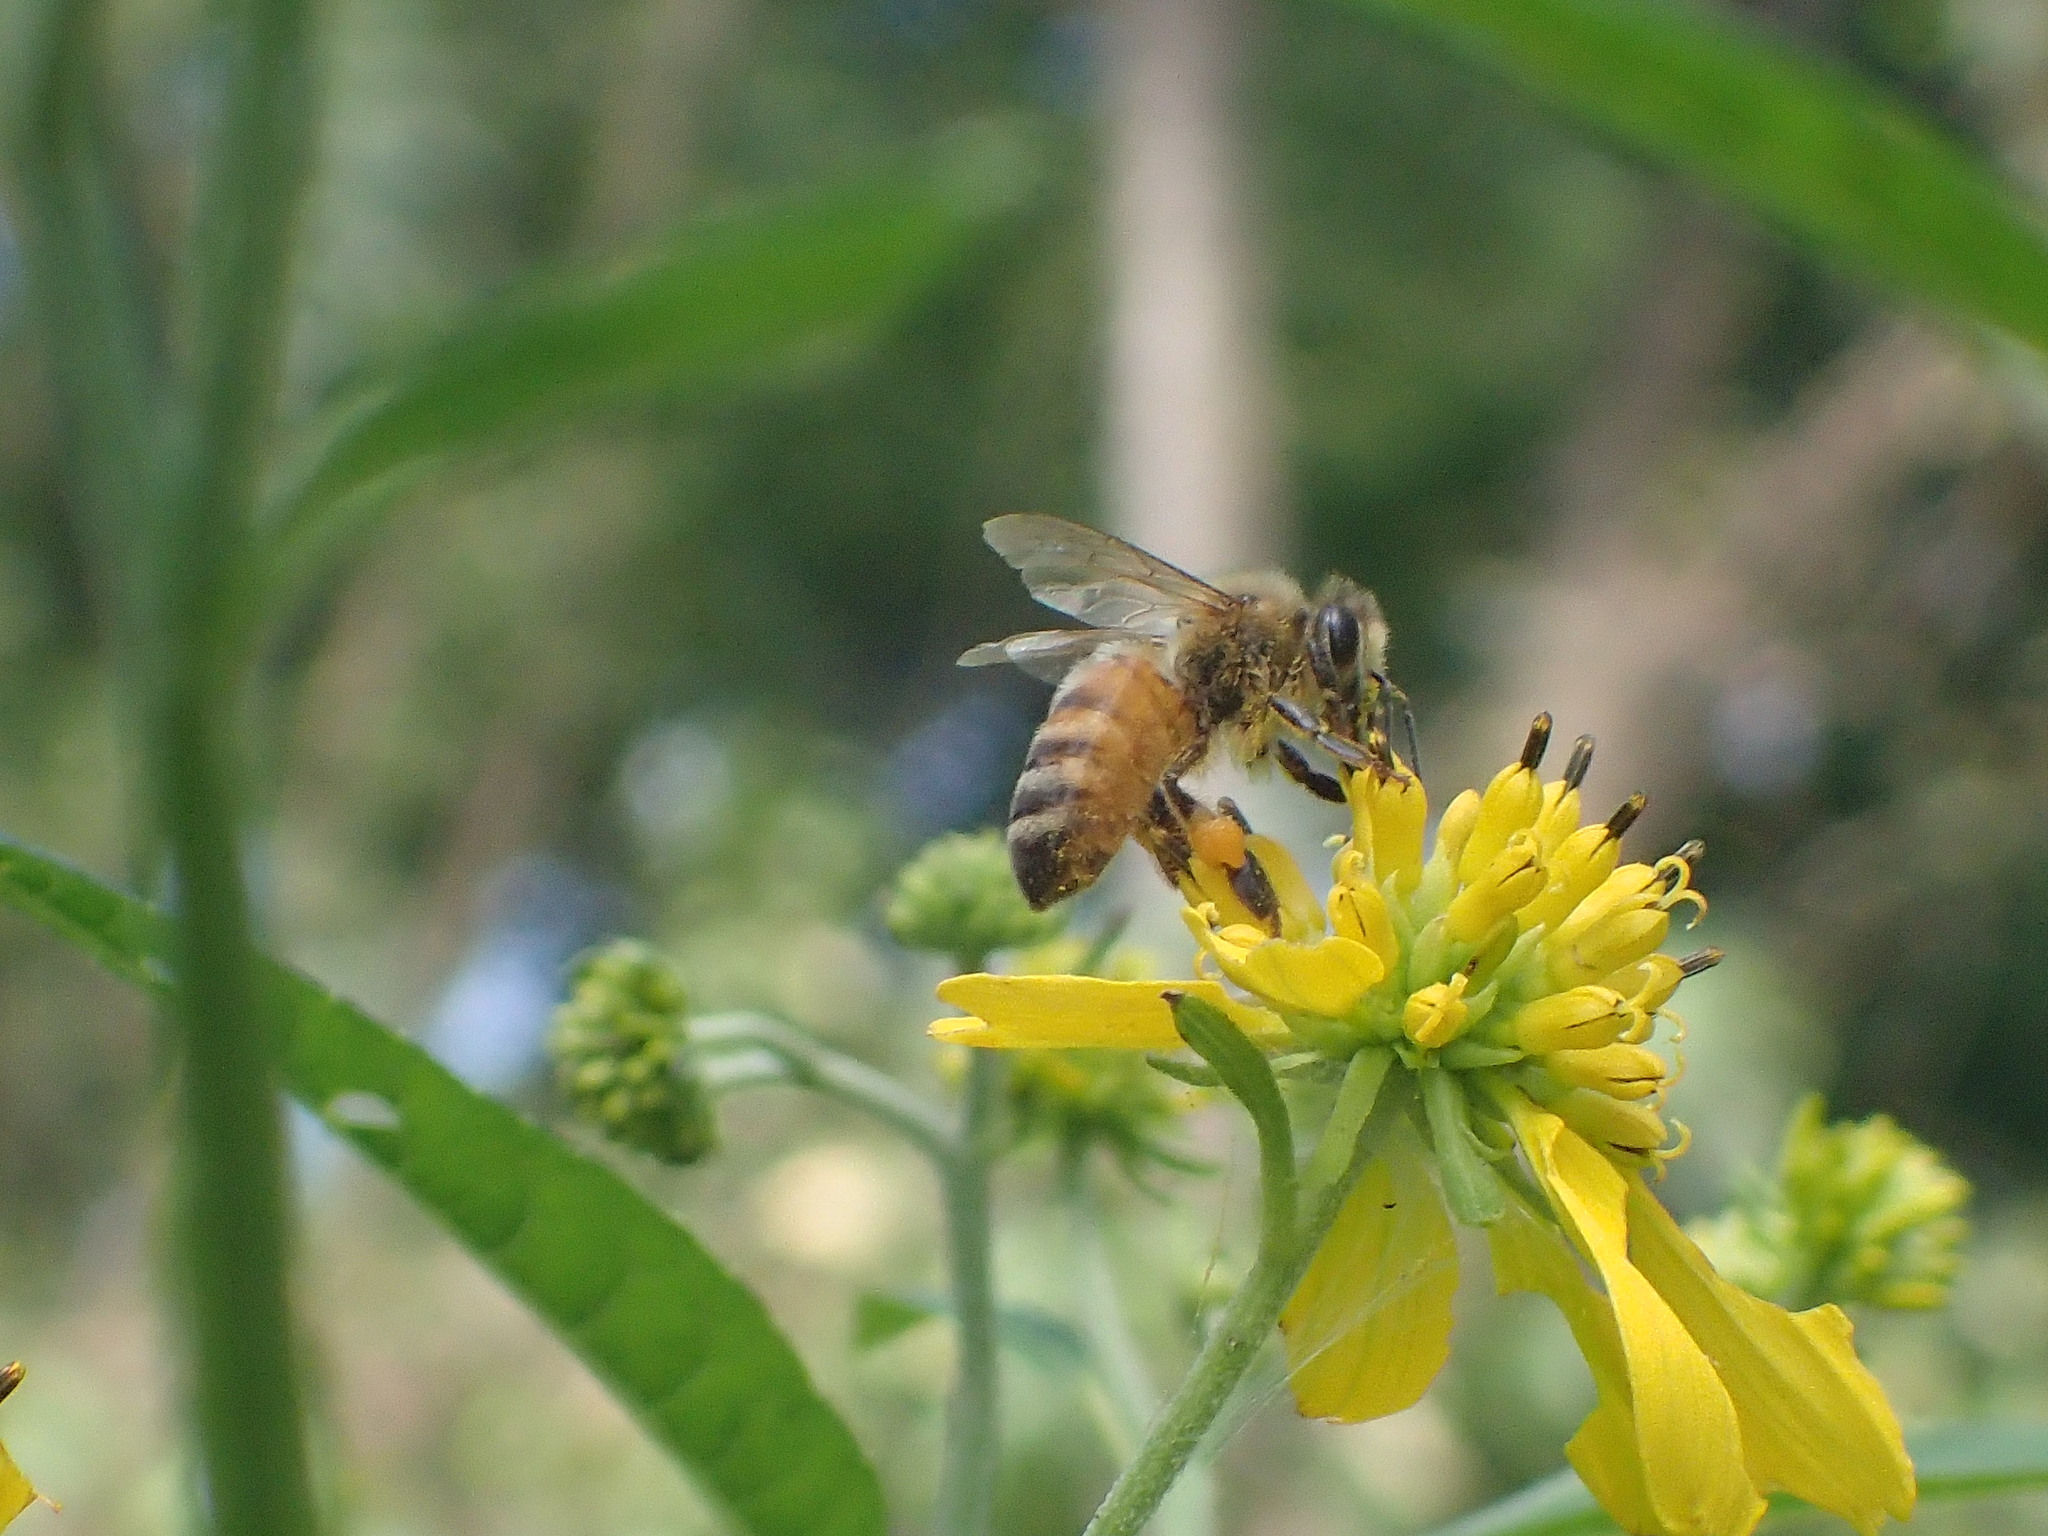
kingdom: Animalia
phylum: Arthropoda
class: Insecta
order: Hymenoptera
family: Apidae
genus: Apis
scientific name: Apis mellifera
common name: Honey bee
